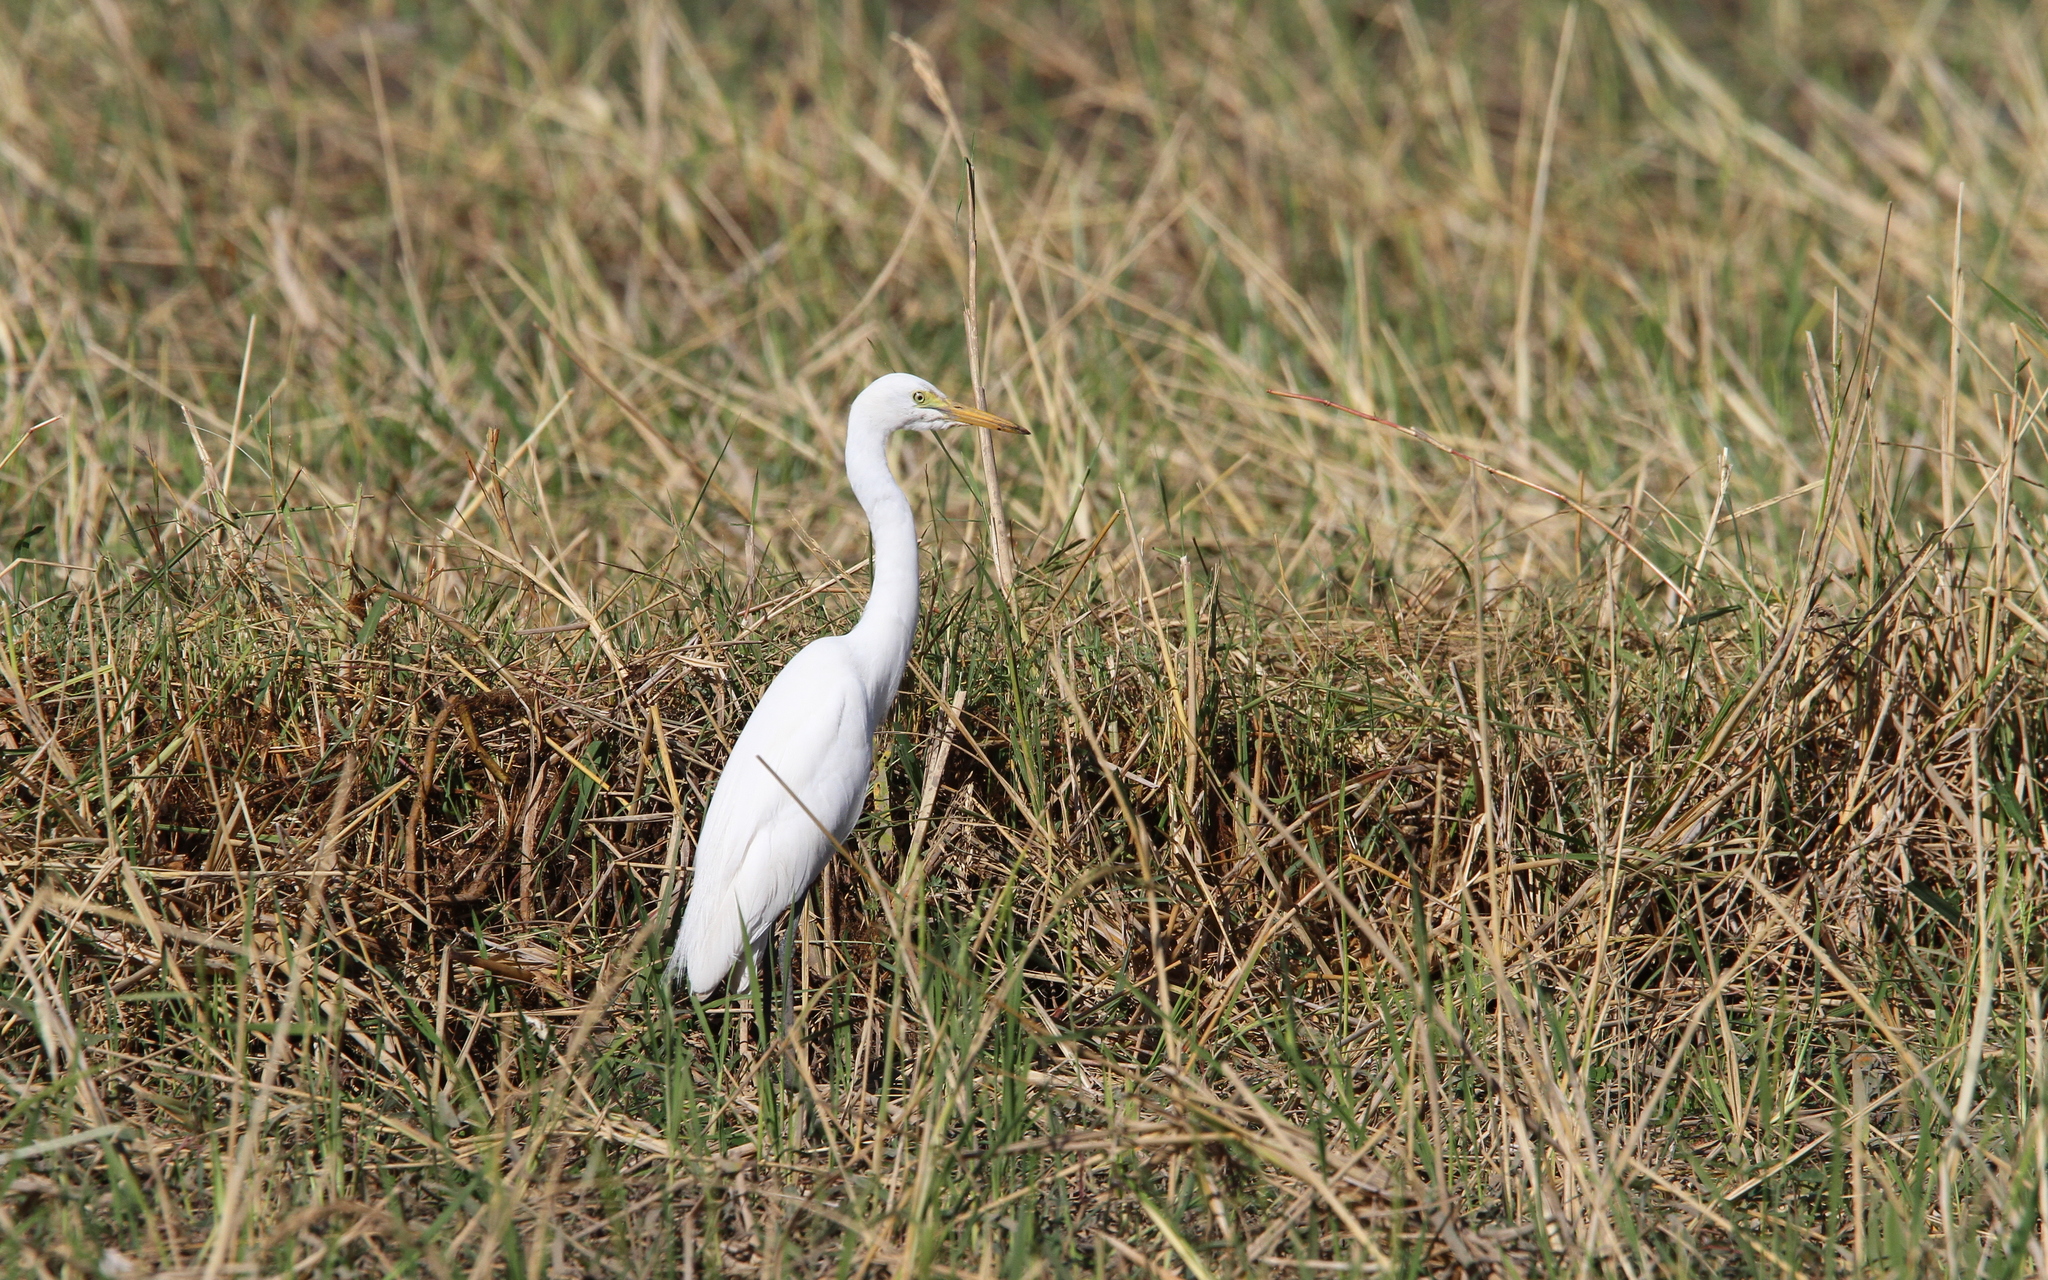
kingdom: Animalia
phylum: Chordata
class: Aves
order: Pelecaniformes
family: Ardeidae
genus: Egretta
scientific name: Egretta intermedia
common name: Intermediate egret
